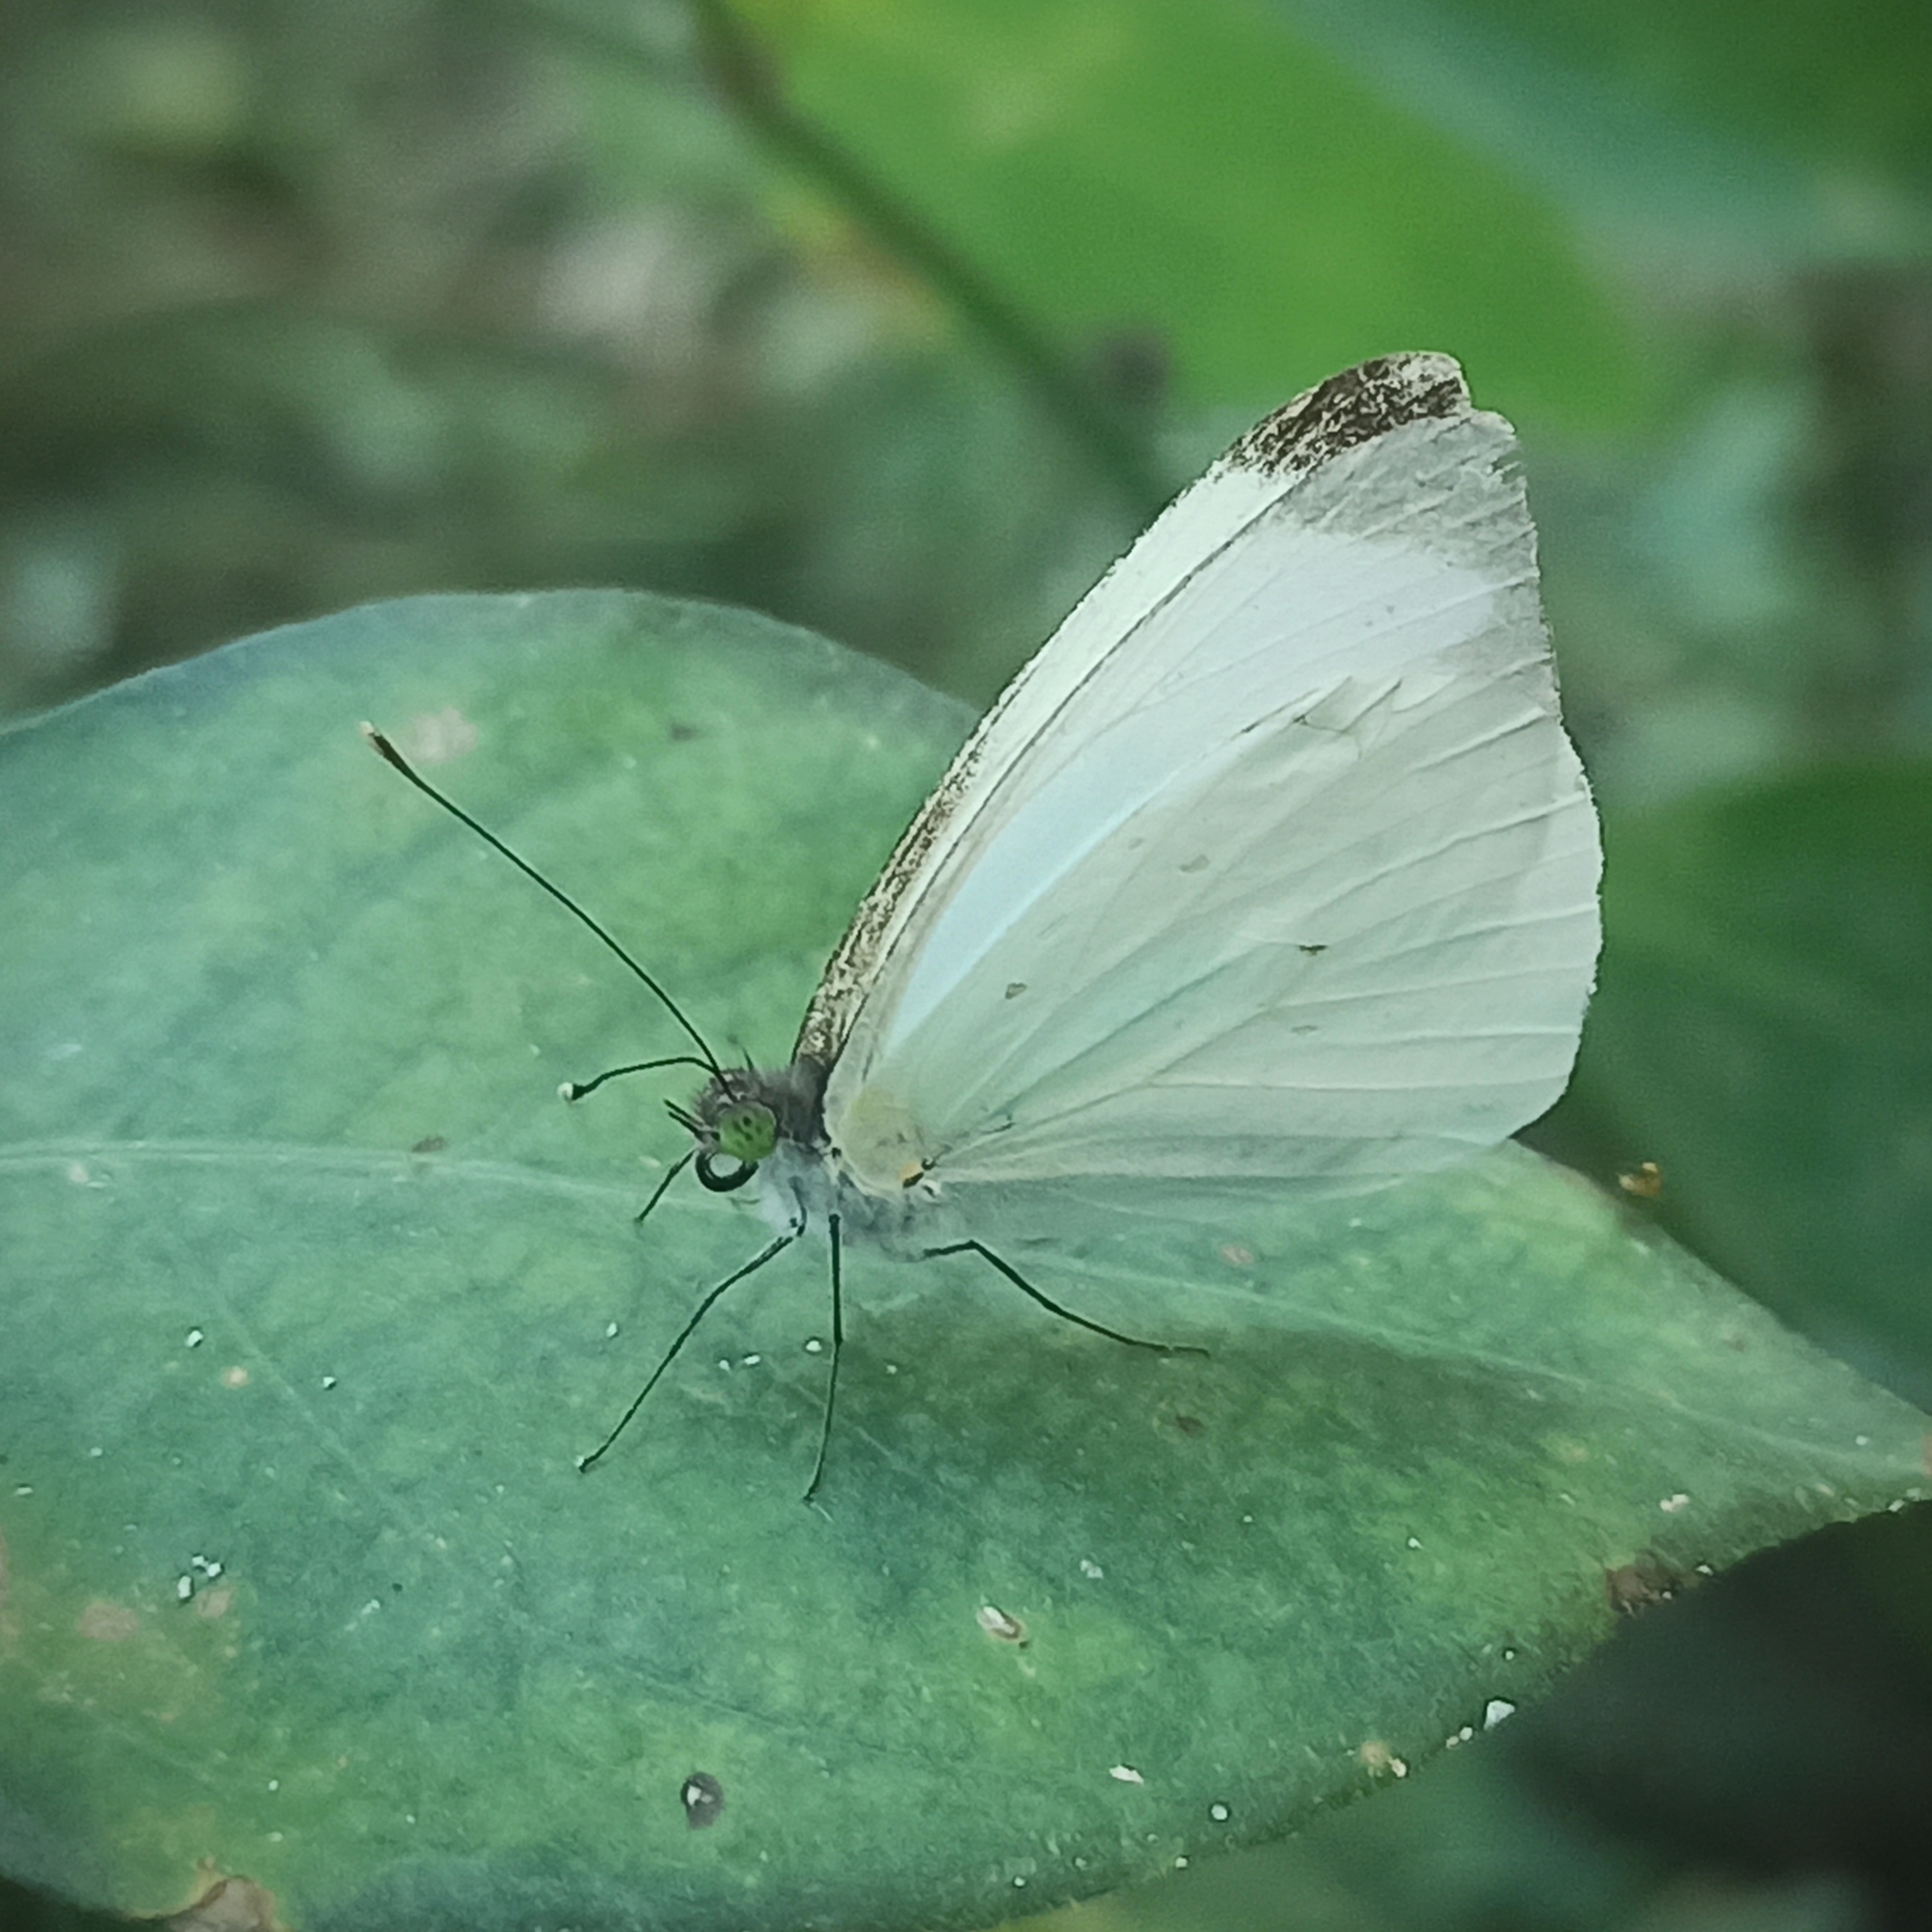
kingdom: Animalia
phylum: Arthropoda
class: Insecta
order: Lepidoptera
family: Pieridae
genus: Leptophobia
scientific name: Leptophobia aripa
